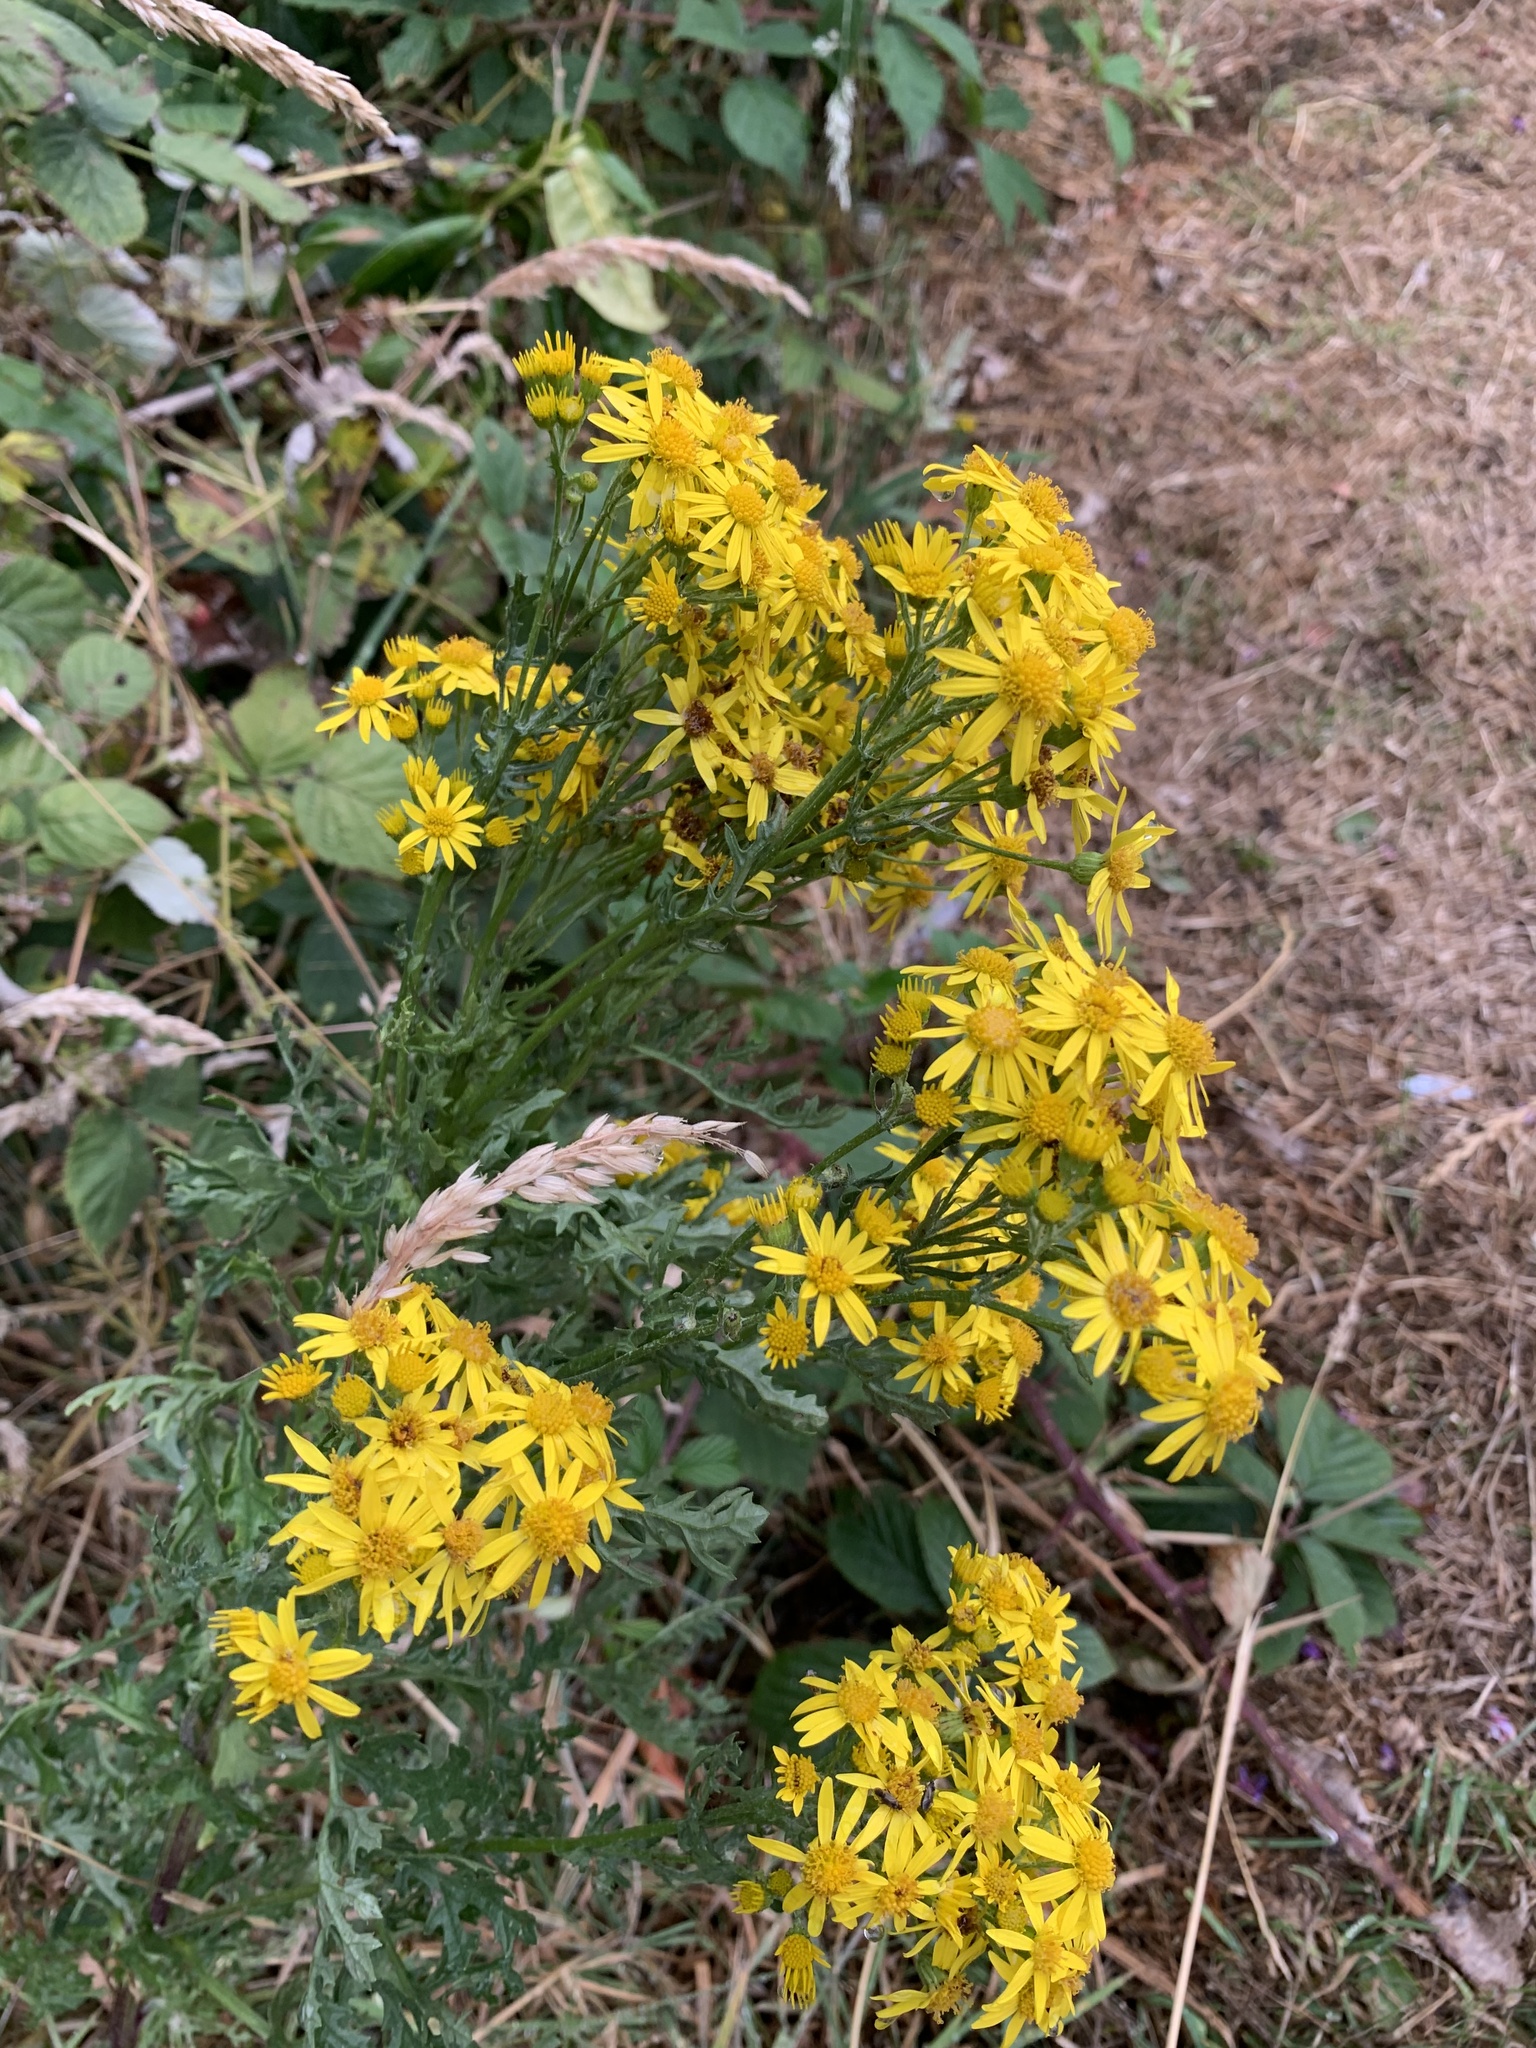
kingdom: Plantae
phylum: Tracheophyta
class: Magnoliopsida
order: Asterales
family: Asteraceae
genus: Jacobaea
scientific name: Jacobaea vulgaris
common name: Stinking willie
